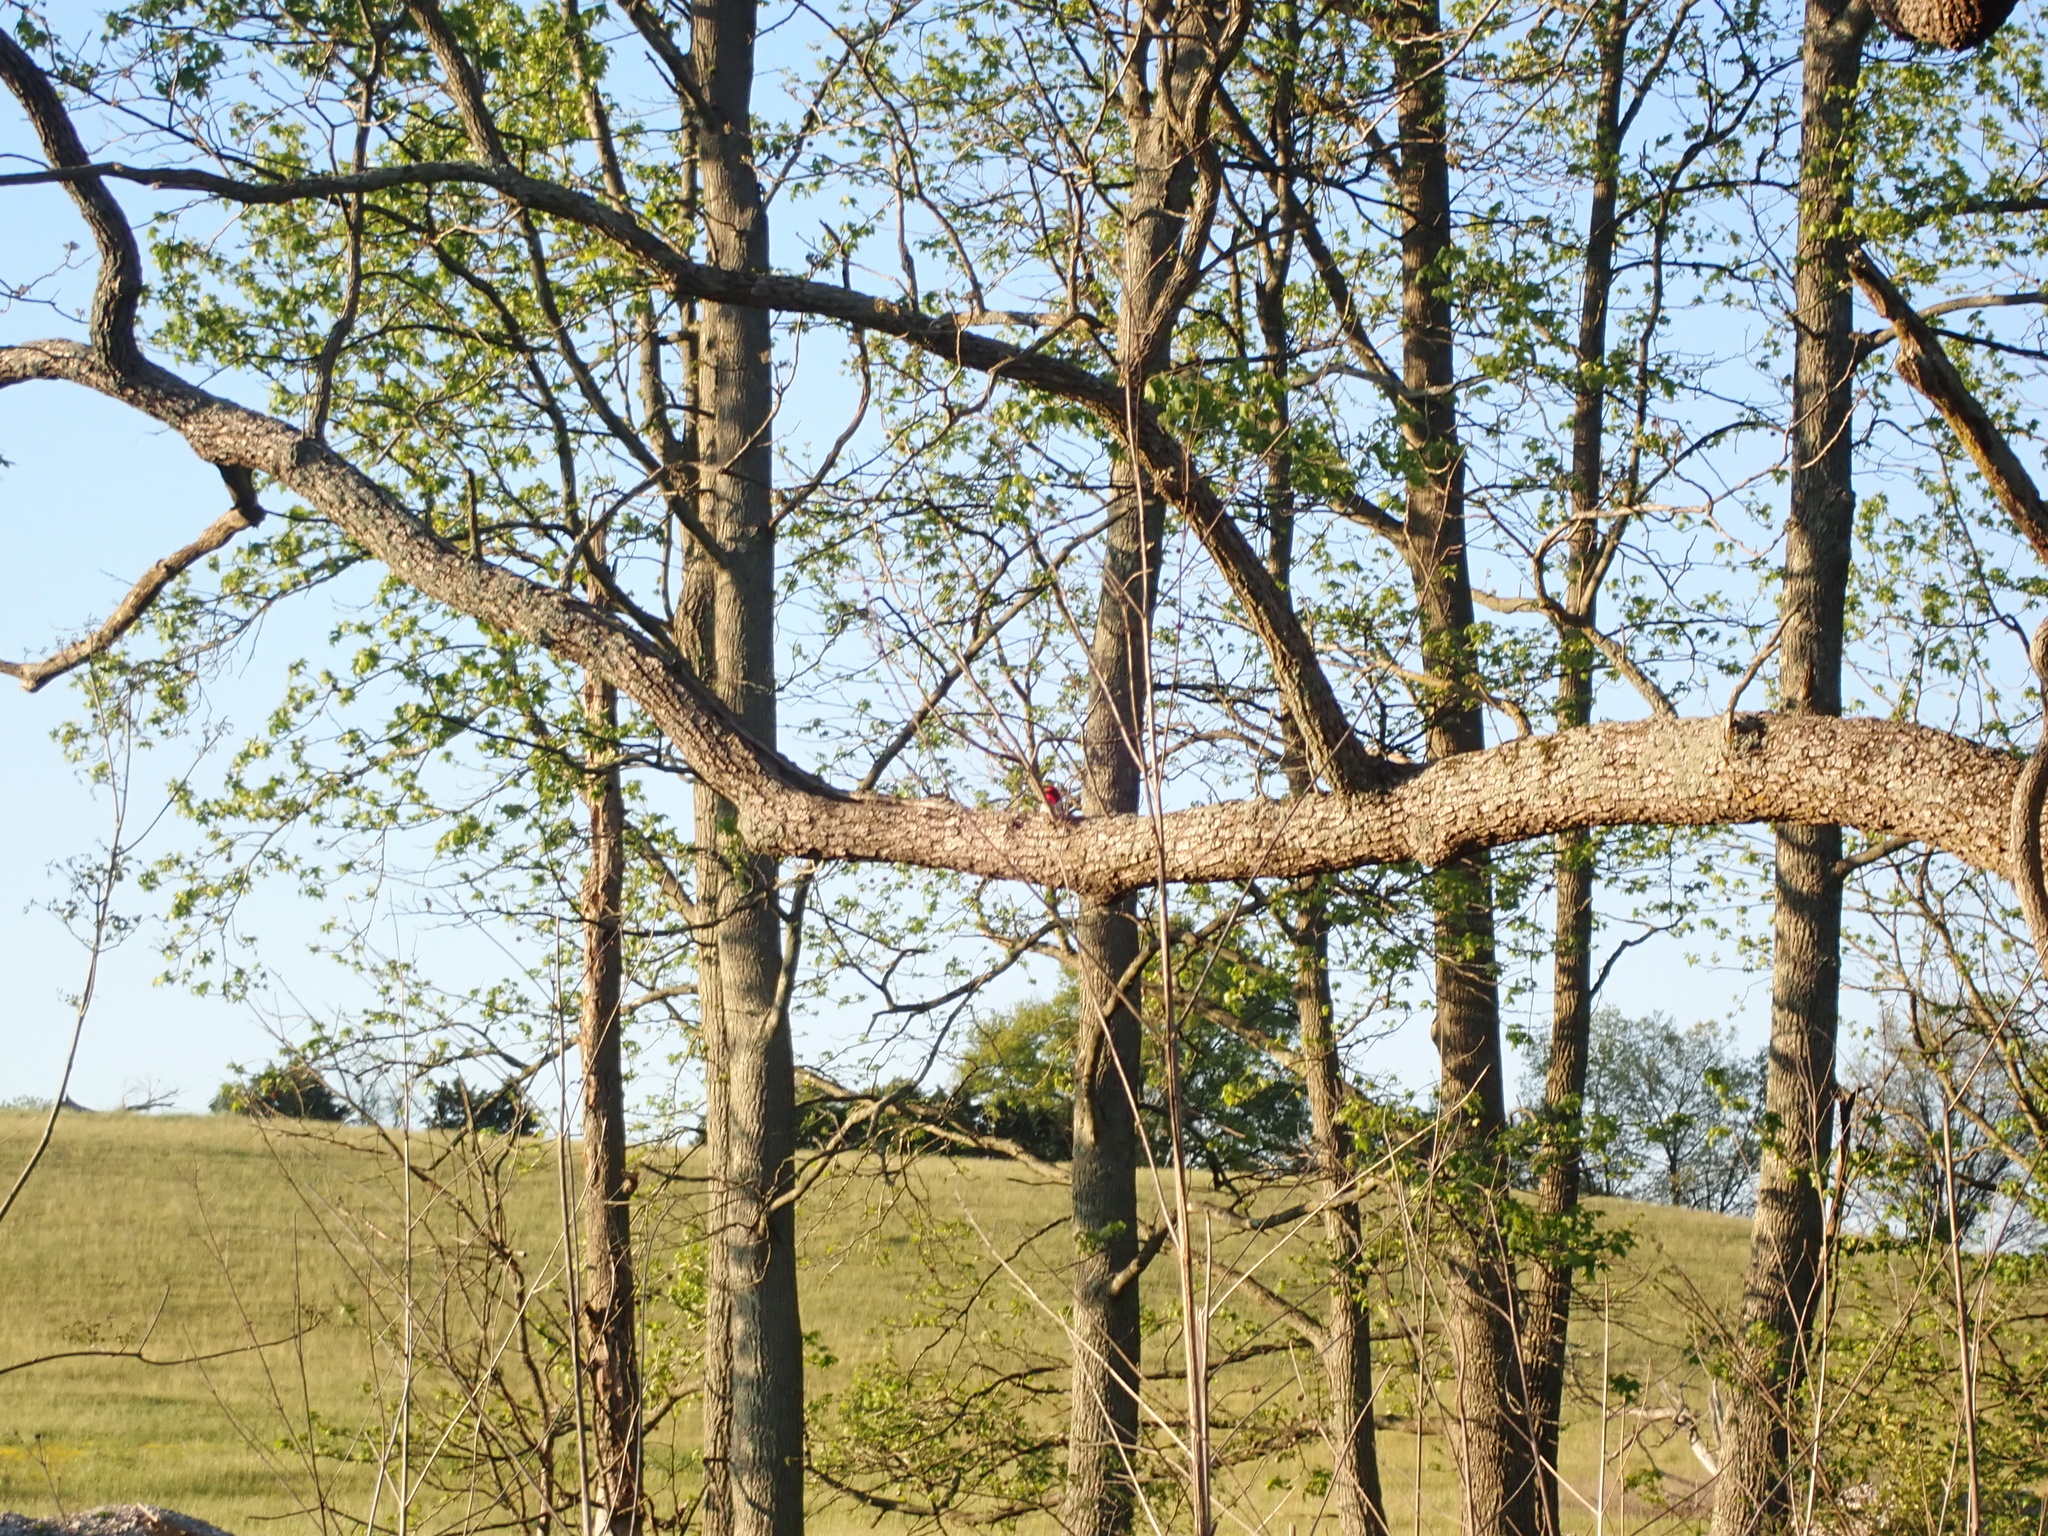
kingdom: Animalia
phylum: Chordata
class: Aves
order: Piciformes
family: Picidae
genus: Melanerpes
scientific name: Melanerpes erythrocephalus
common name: Red-headed woodpecker
